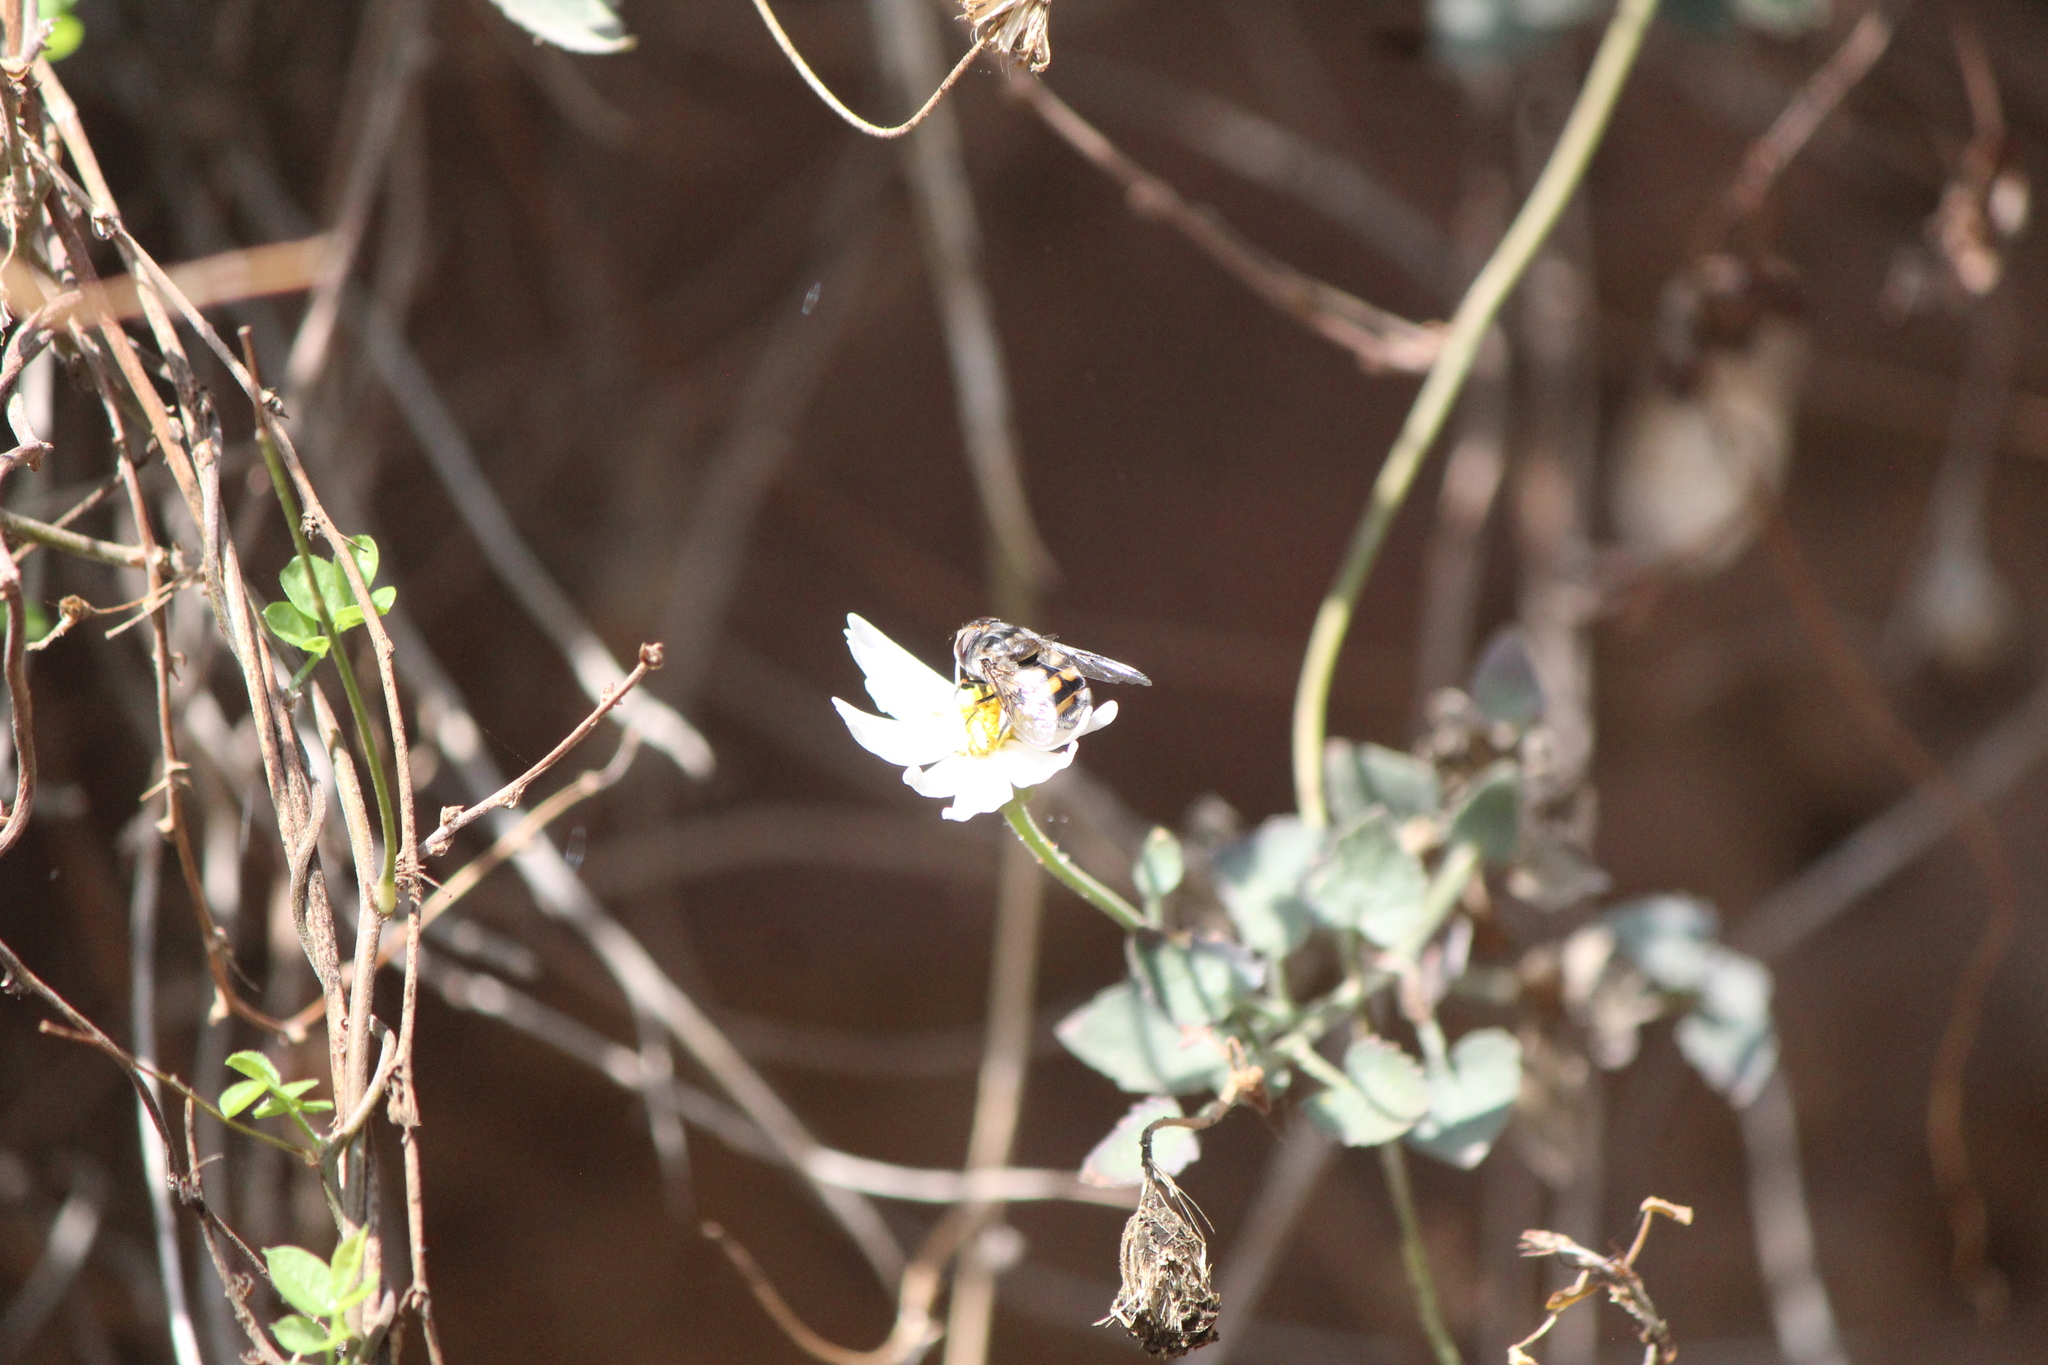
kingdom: Animalia
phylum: Arthropoda
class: Insecta
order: Diptera
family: Syrphidae
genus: Copestylum
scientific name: Copestylum avidum
